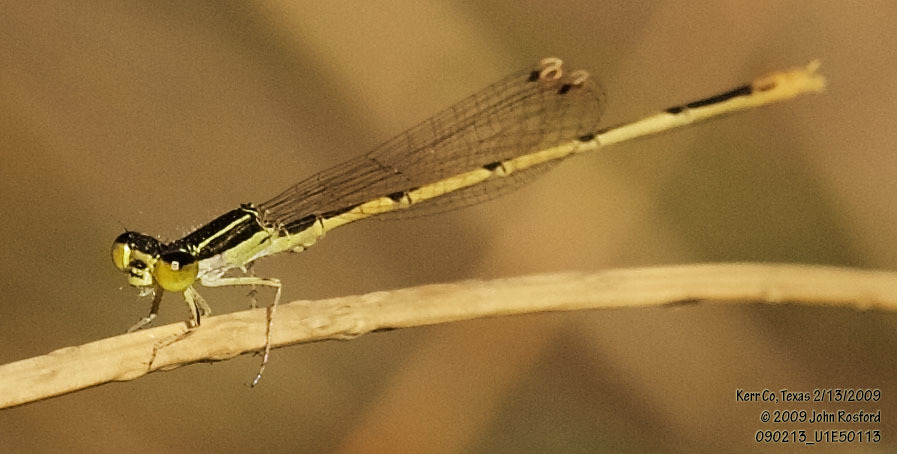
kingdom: Animalia
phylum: Arthropoda
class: Insecta
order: Odonata
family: Coenagrionidae
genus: Ischnura
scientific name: Ischnura hastata
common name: Citrine forktail
